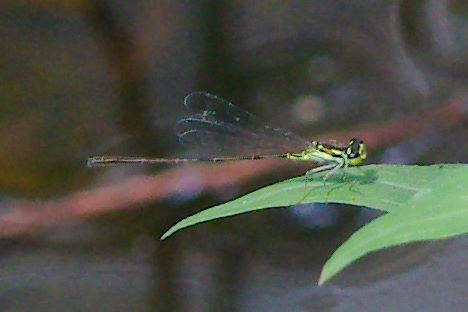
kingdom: Animalia
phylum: Arthropoda
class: Insecta
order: Odonata
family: Coenagrionidae
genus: Ischnura
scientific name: Ischnura posita
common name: Fragile forktail
